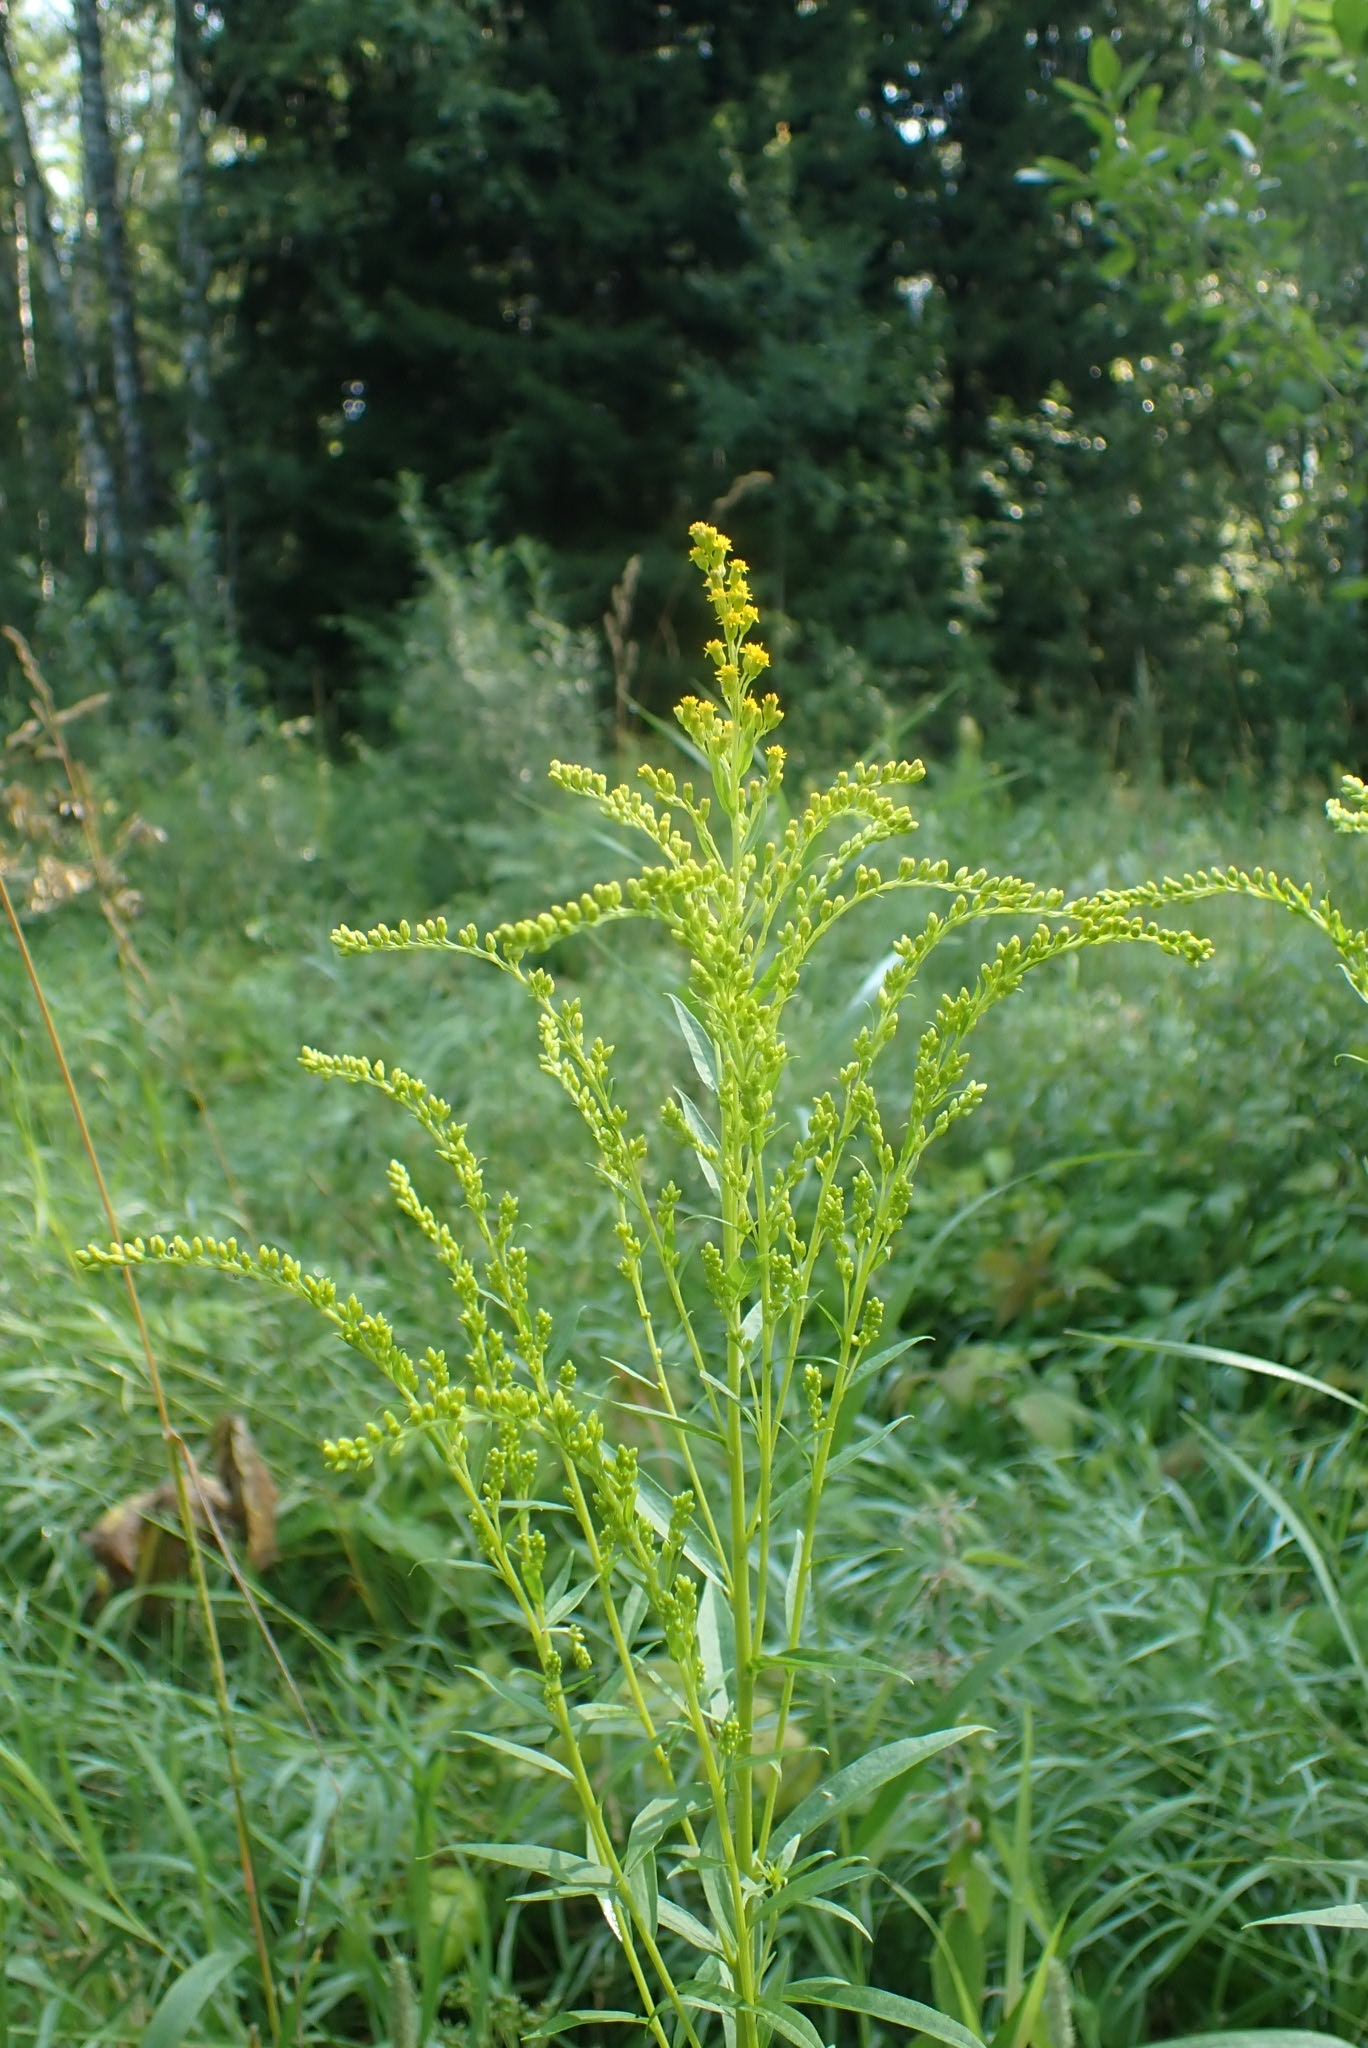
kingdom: Plantae
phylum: Tracheophyta
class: Magnoliopsida
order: Asterales
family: Asteraceae
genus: Solidago
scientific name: Solidago canadensis
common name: Canada goldenrod
